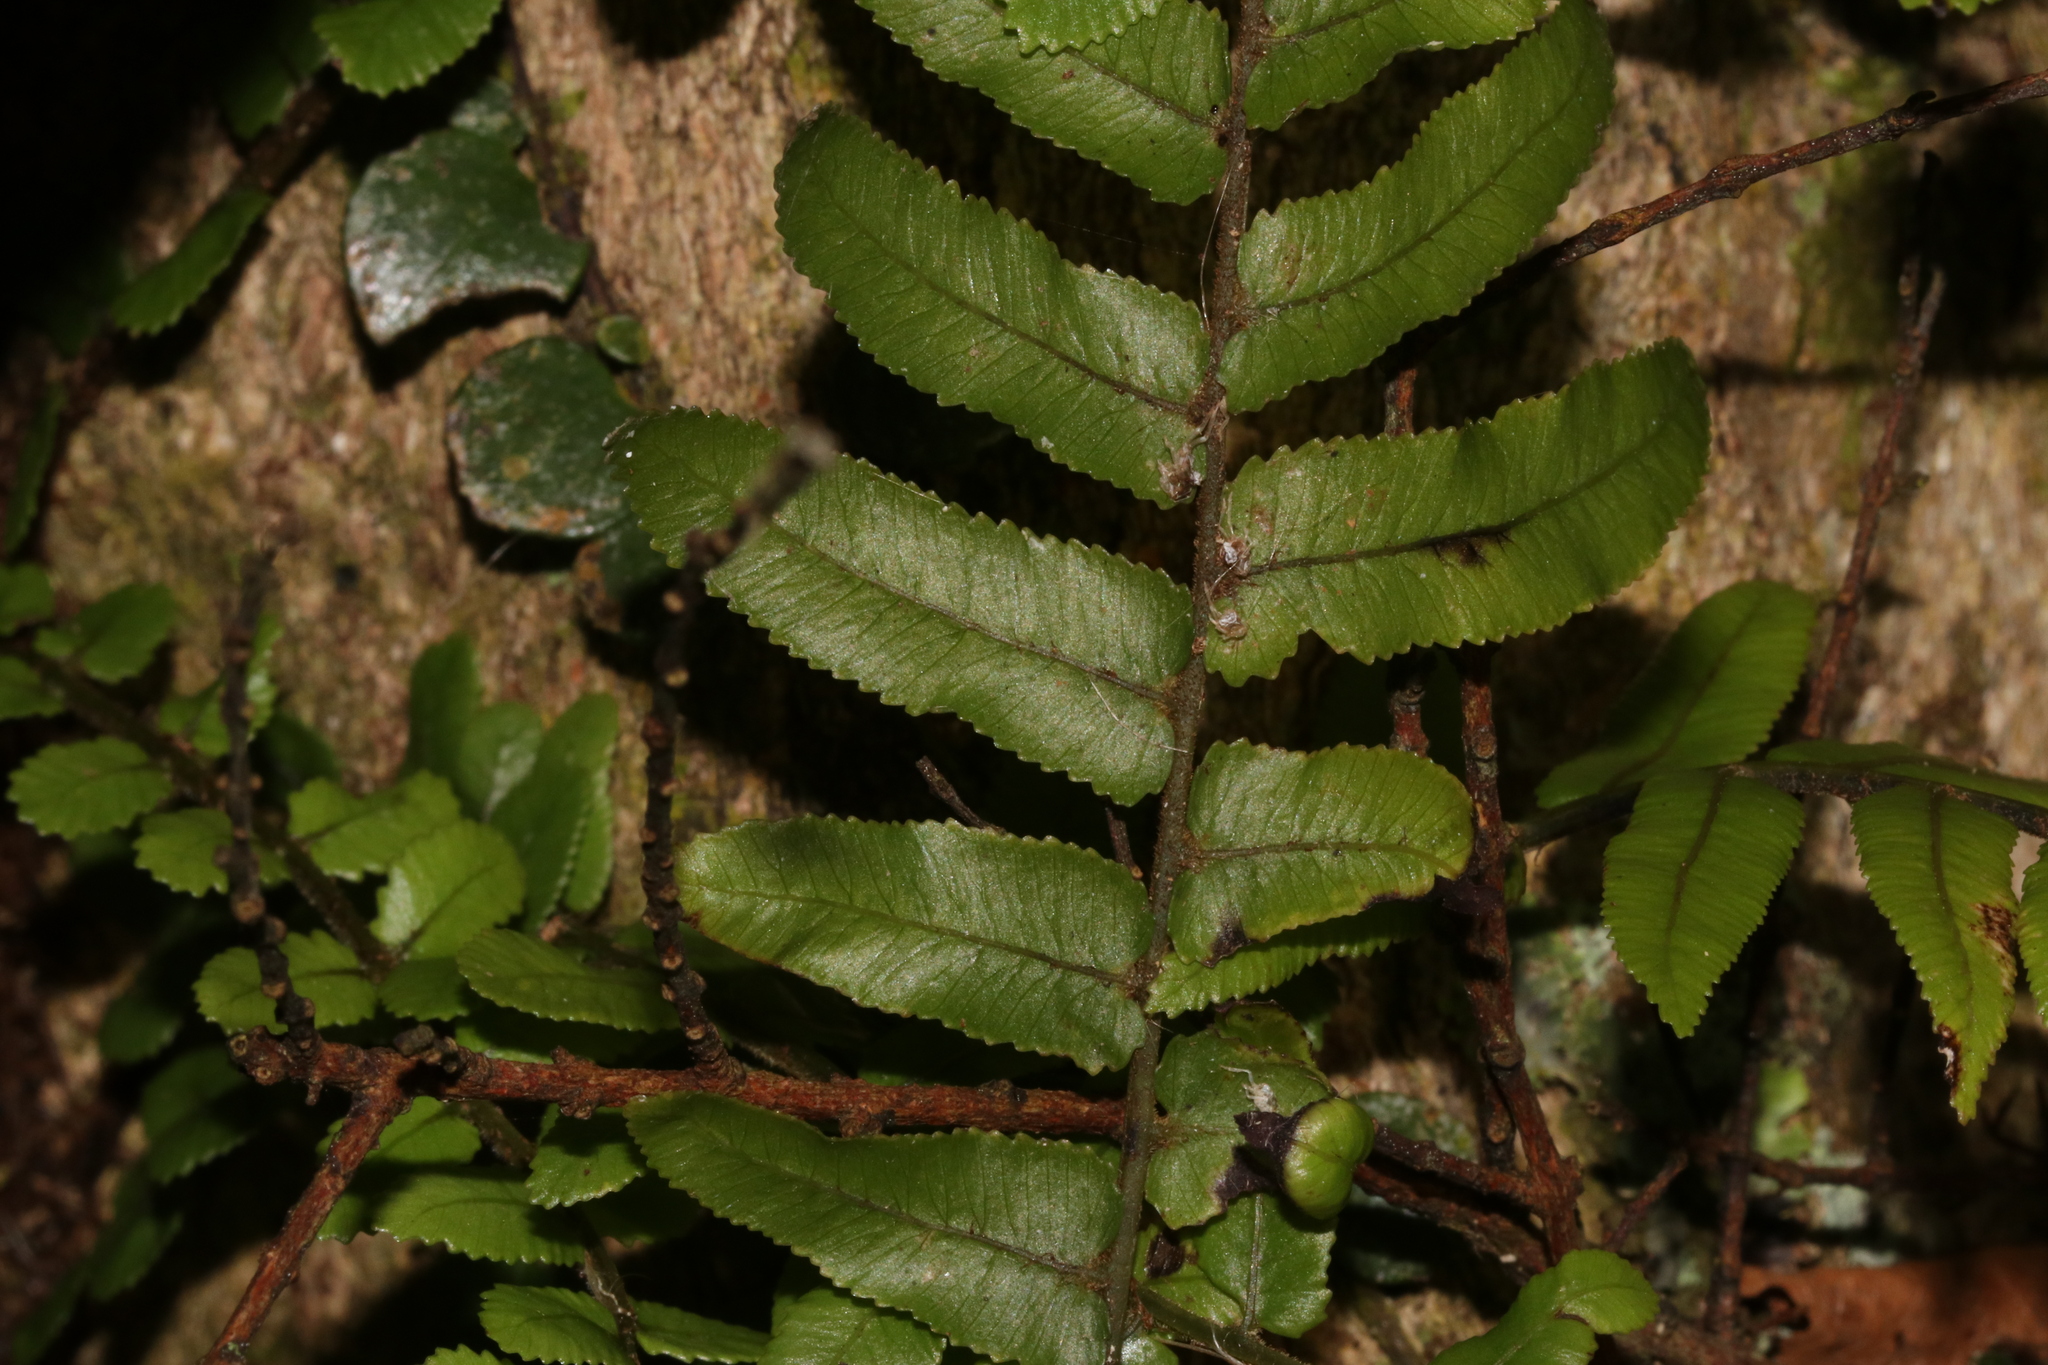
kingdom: Plantae
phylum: Tracheophyta
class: Polypodiopsida
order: Polypodiales
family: Blechnaceae
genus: Icarus
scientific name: Icarus filiformis
